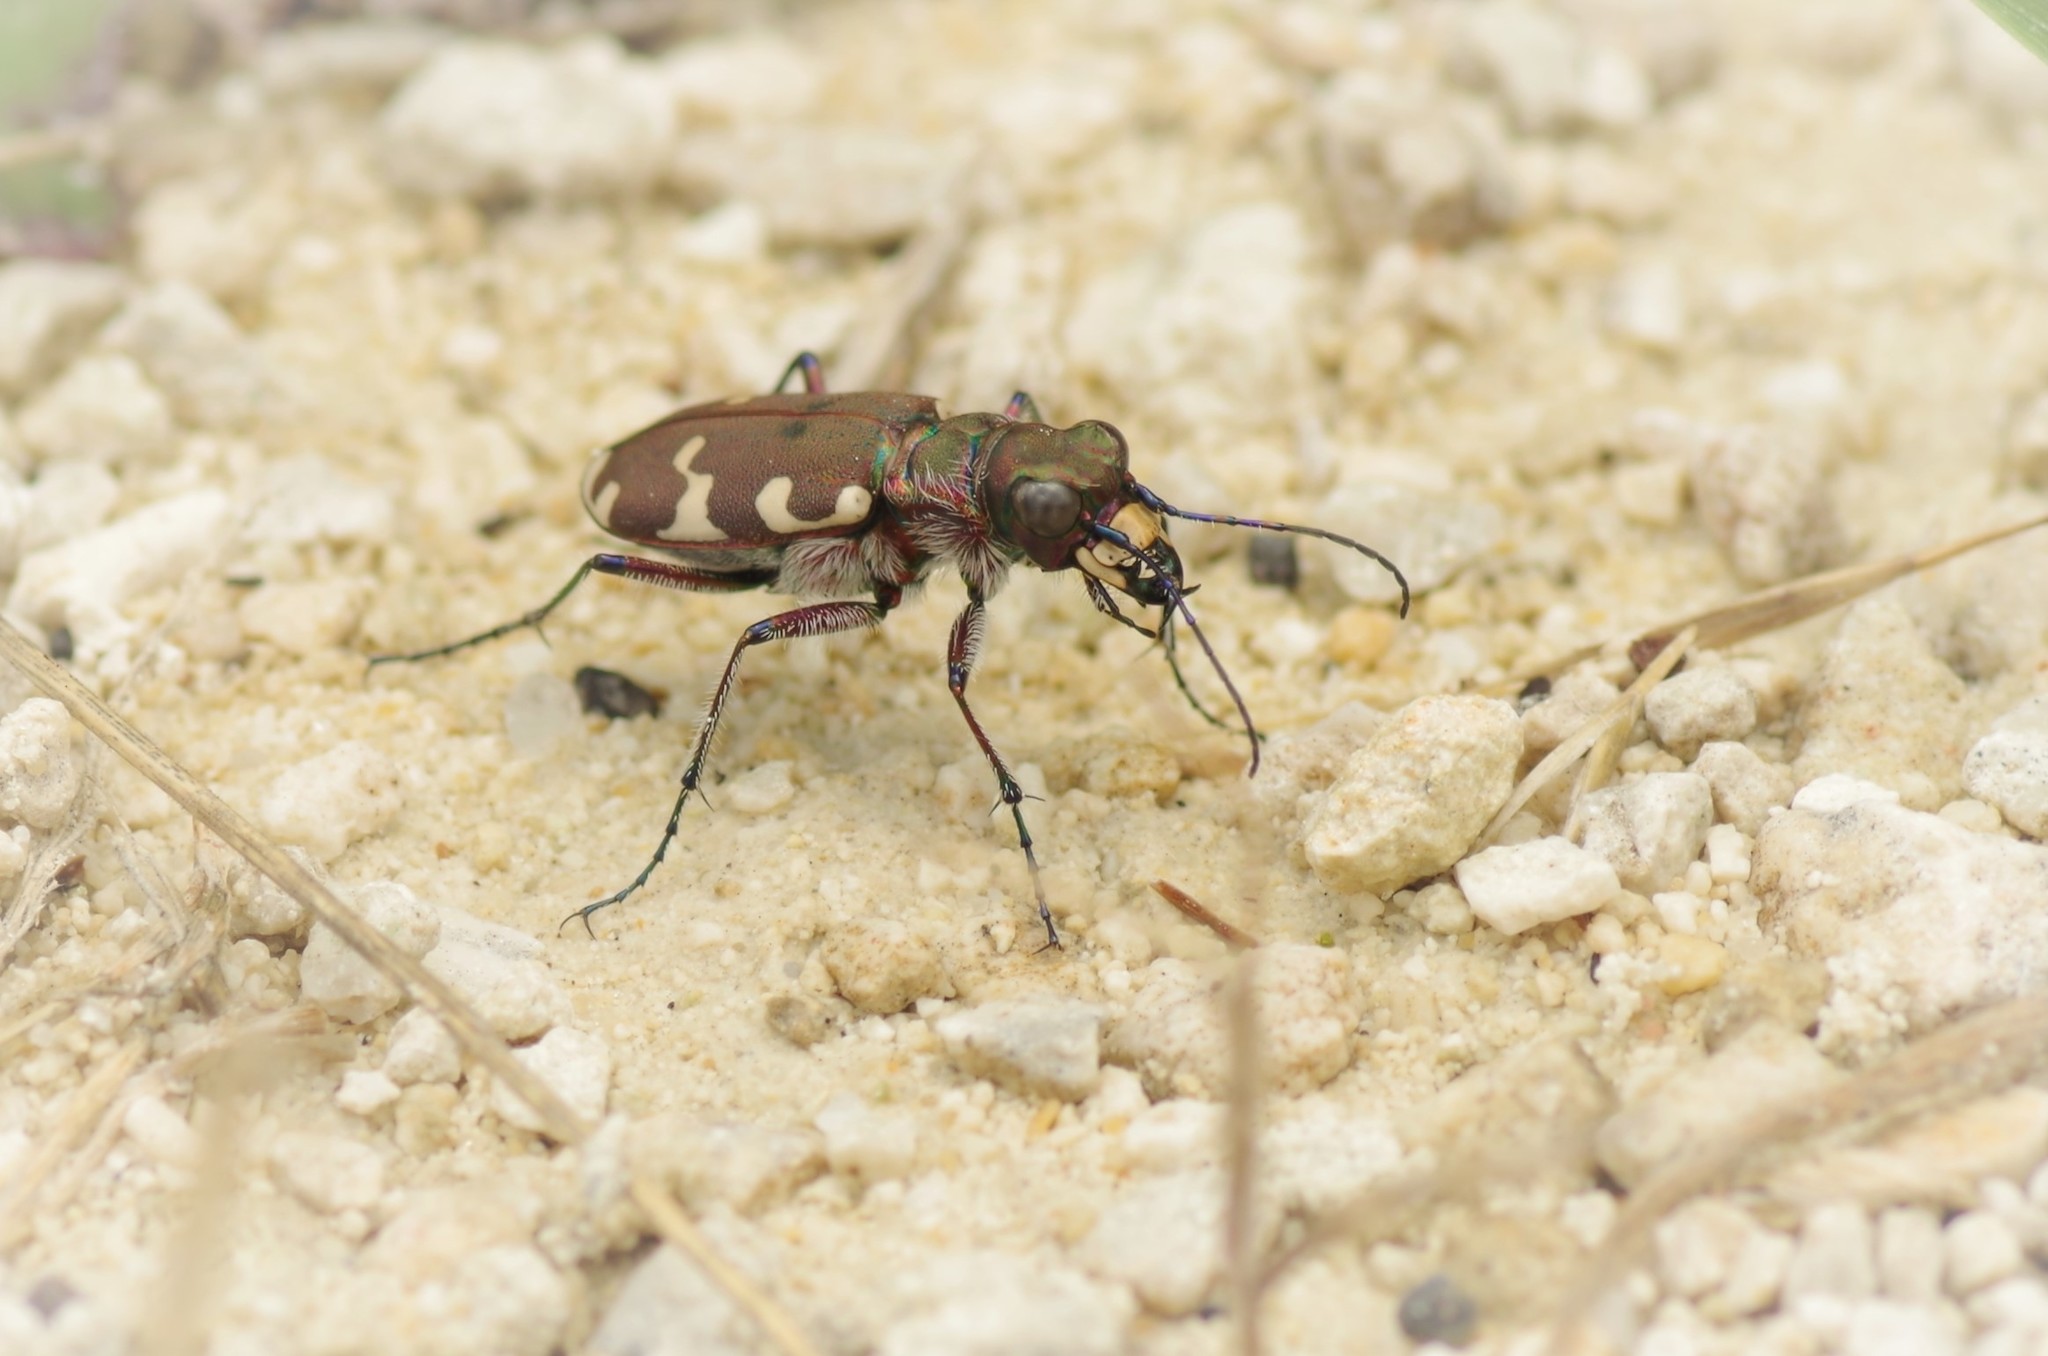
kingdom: Animalia
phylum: Arthropoda
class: Insecta
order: Coleoptera
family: Carabidae
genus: Cicindela
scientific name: Cicindela hybrida
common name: Northern dune tiger beetle
